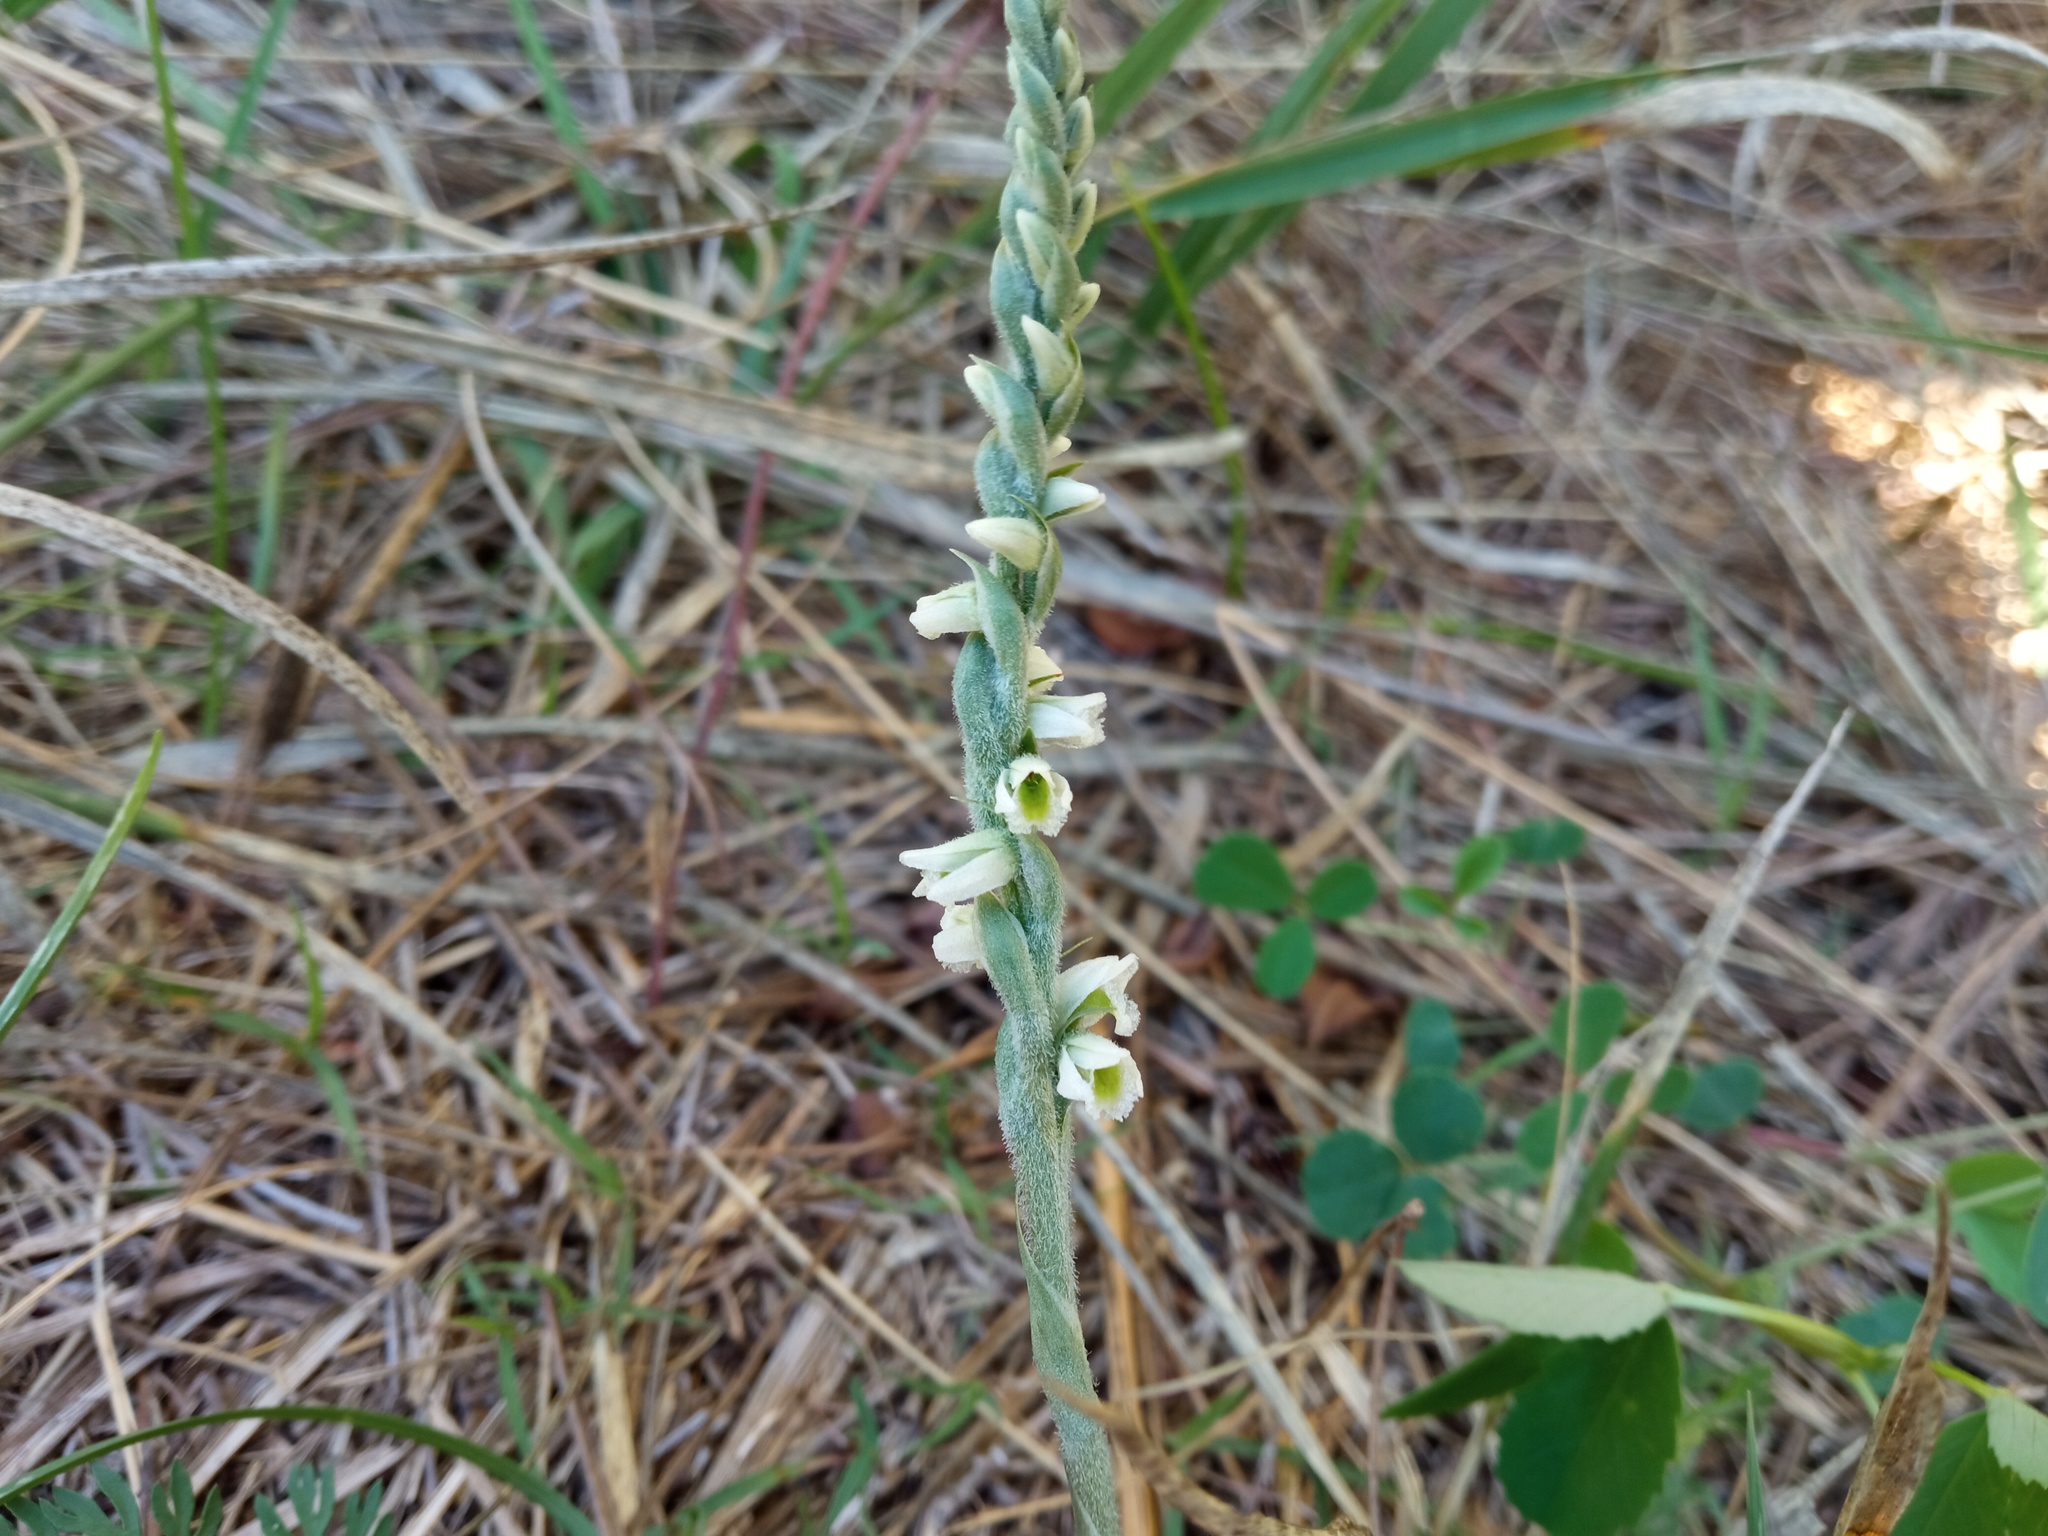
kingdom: Plantae
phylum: Tracheophyta
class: Liliopsida
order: Asparagales
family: Orchidaceae
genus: Spiranthes
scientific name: Spiranthes spiralis
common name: Autumn lady's-tresses
